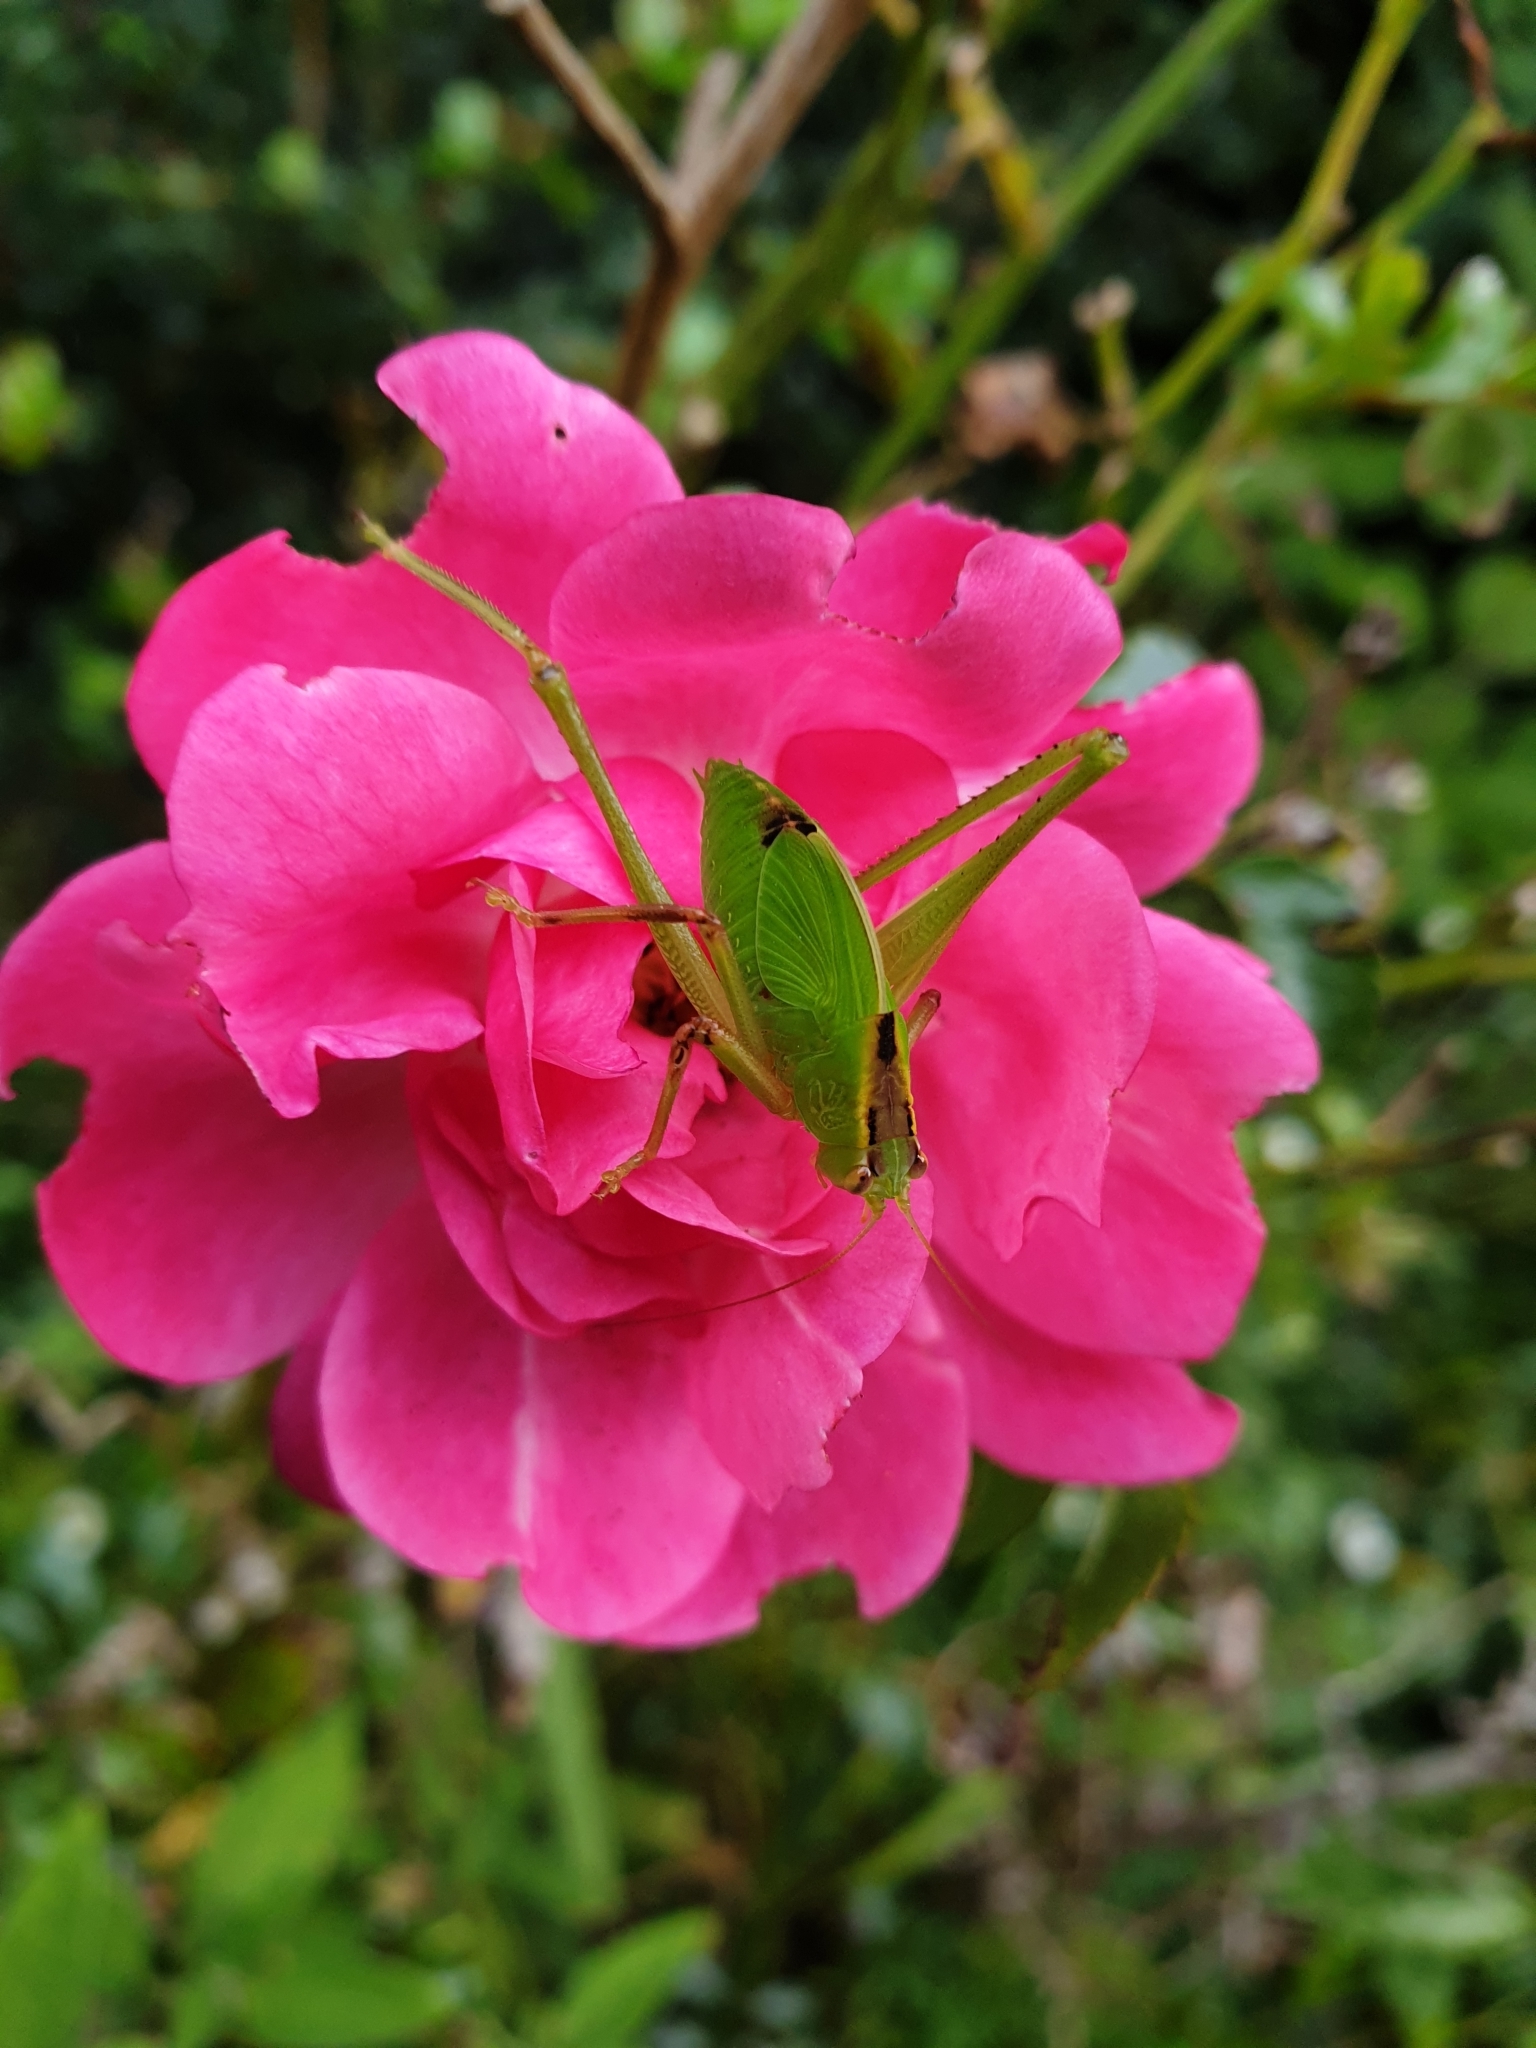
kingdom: Animalia
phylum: Arthropoda
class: Insecta
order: Orthoptera
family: Tettigoniidae
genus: Caedicia
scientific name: Caedicia simplex
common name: Common garden katydid
